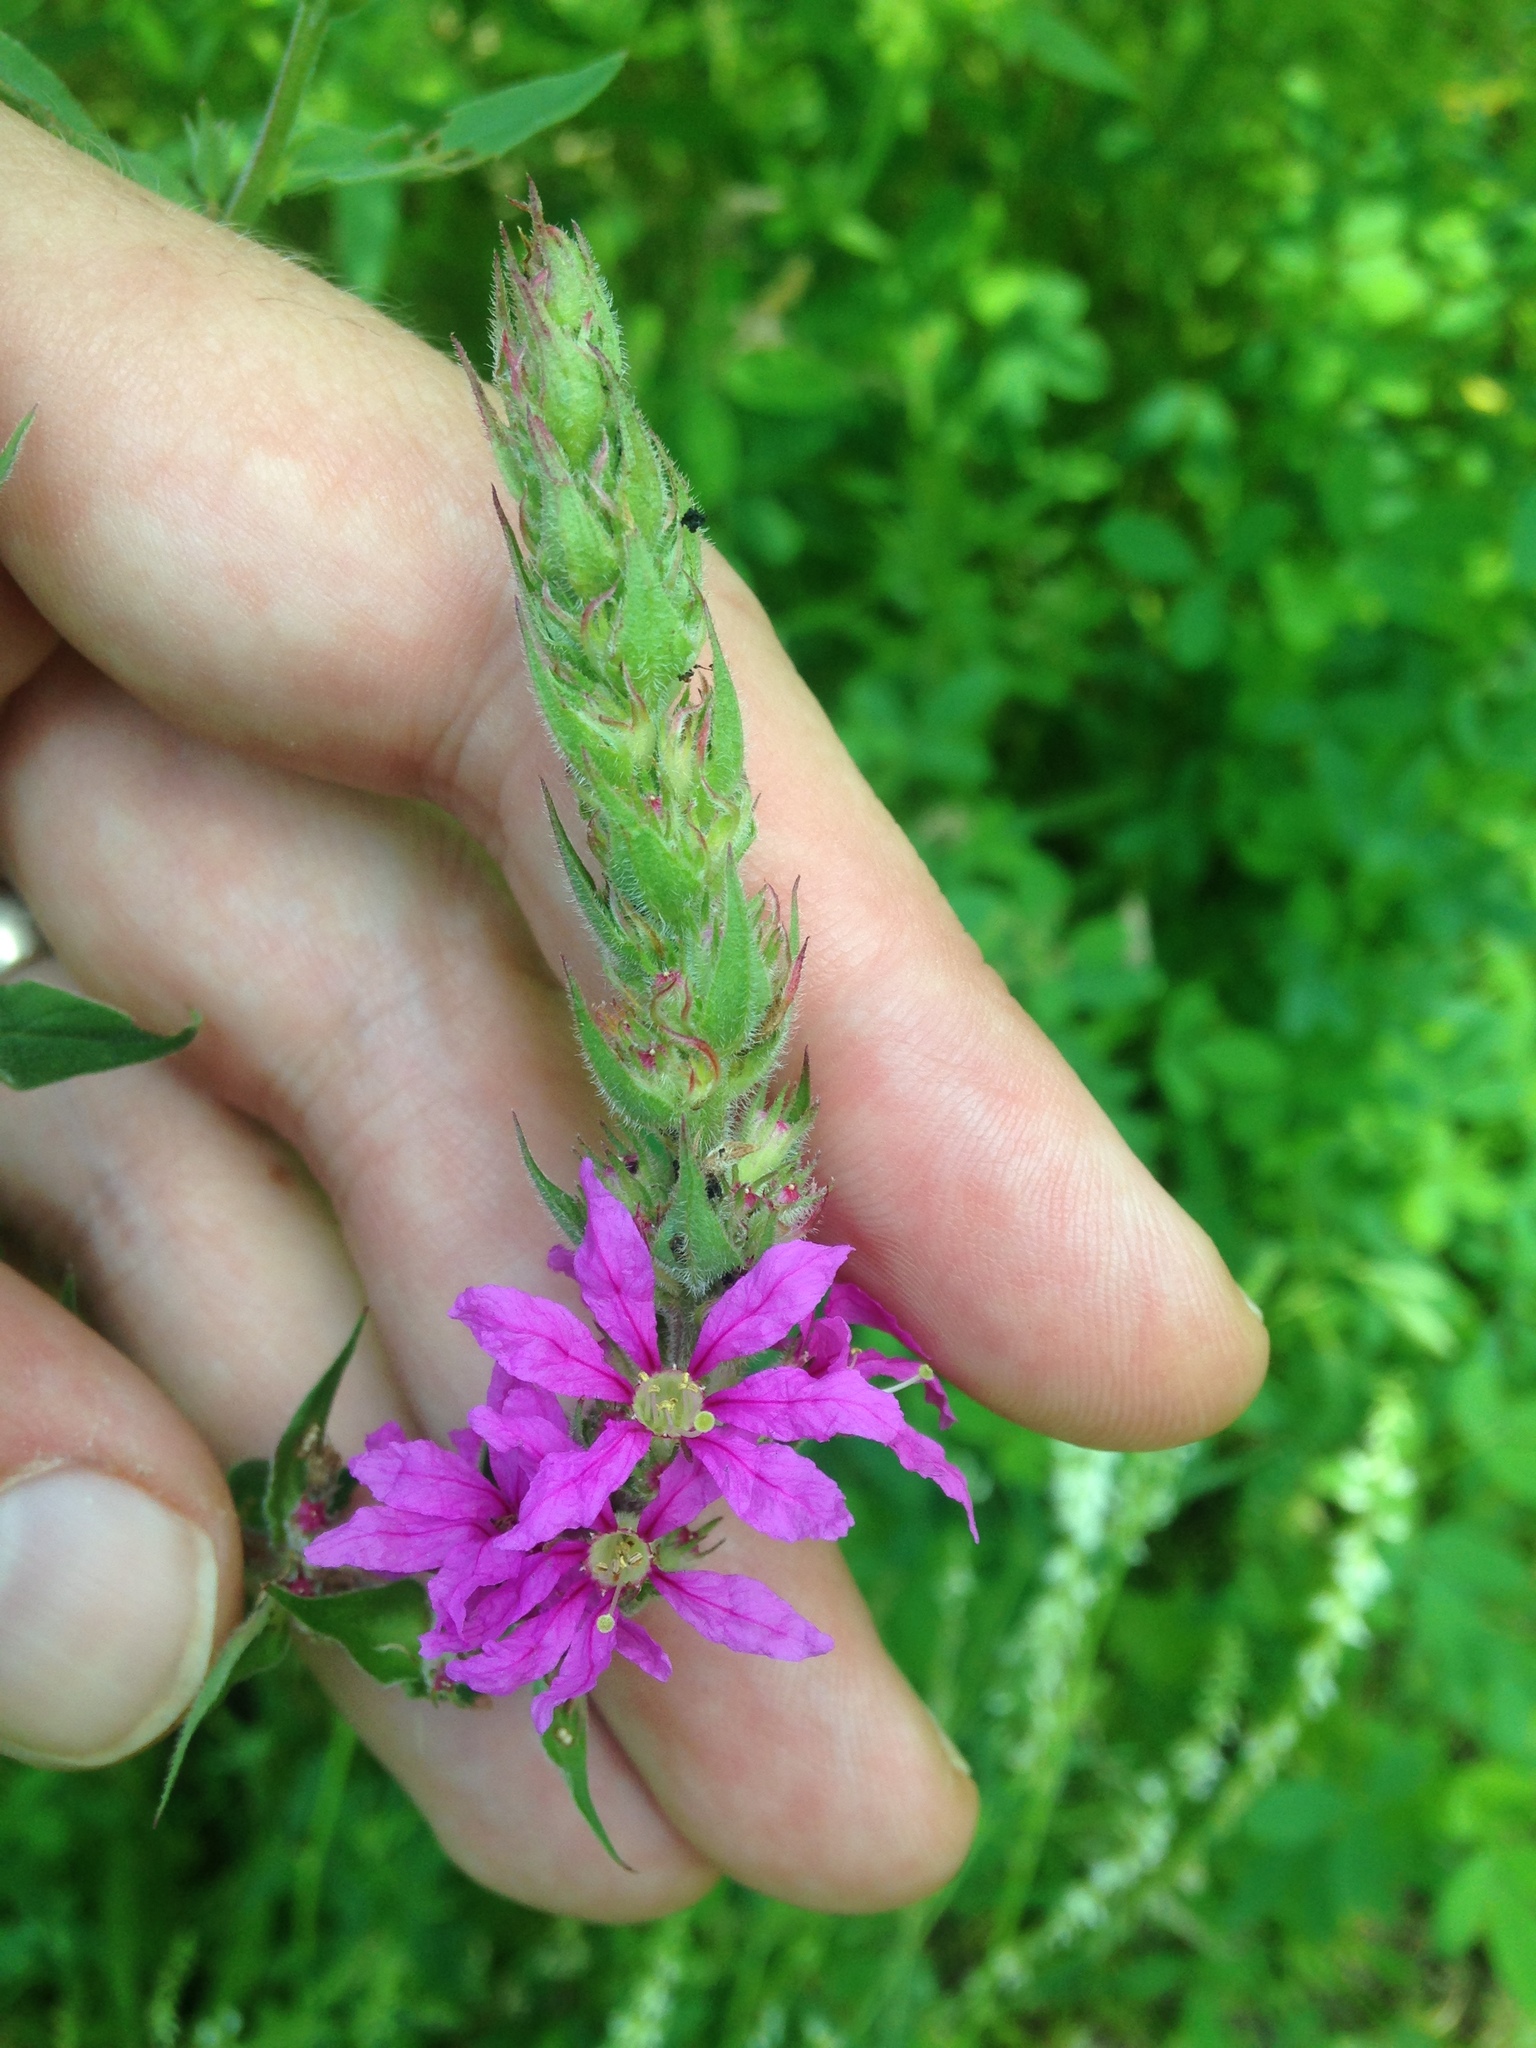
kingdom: Plantae
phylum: Tracheophyta
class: Magnoliopsida
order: Myrtales
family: Lythraceae
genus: Lythrum
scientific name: Lythrum salicaria
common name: Purple loosestrife
